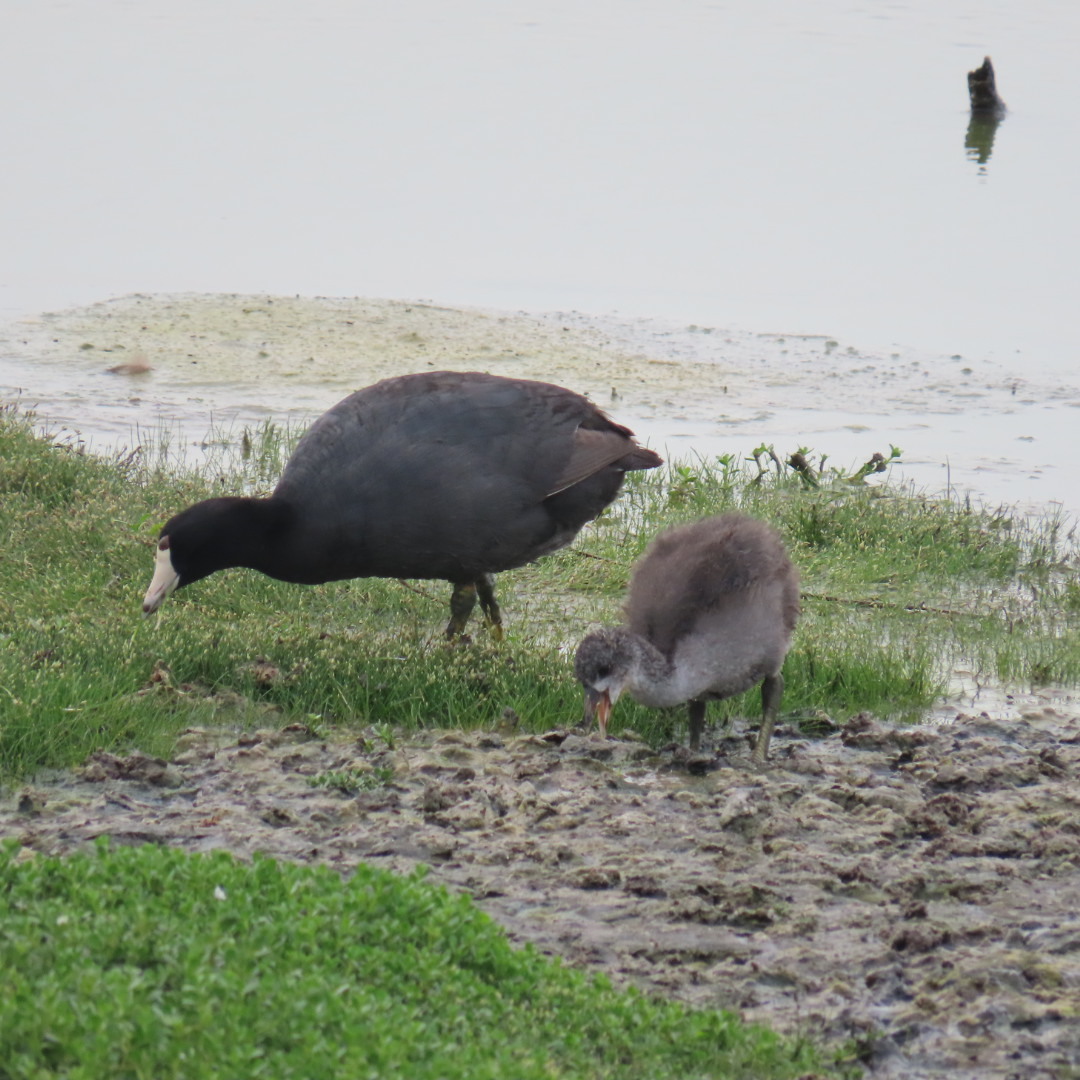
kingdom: Animalia
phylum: Chordata
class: Aves
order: Gruiformes
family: Rallidae
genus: Fulica
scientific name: Fulica americana
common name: American coot
